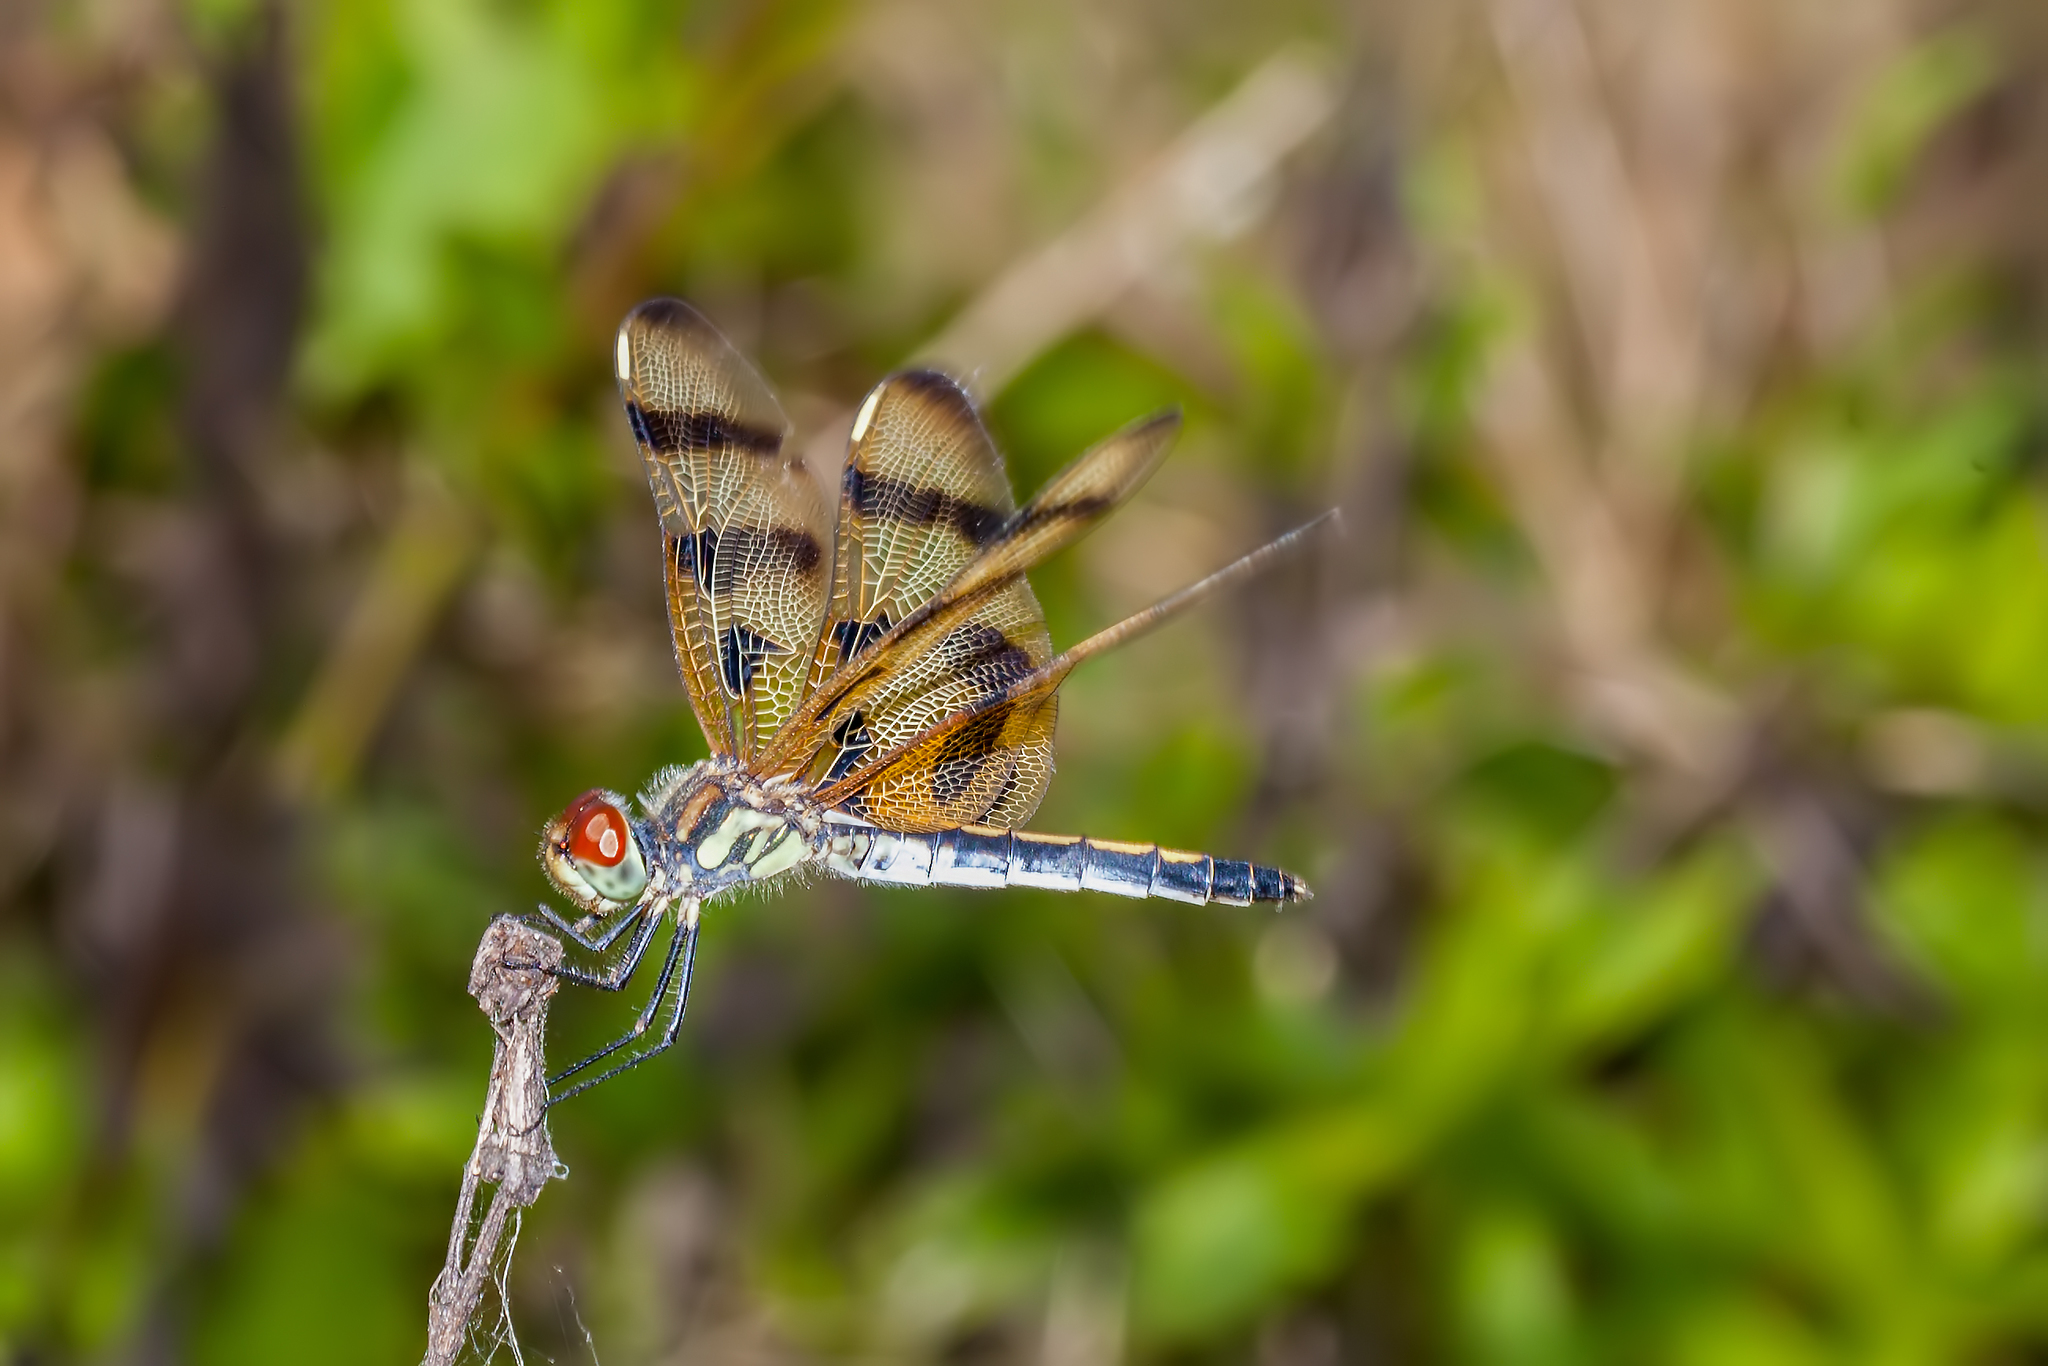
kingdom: Animalia
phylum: Arthropoda
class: Insecta
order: Odonata
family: Libellulidae
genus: Celithemis
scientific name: Celithemis eponina
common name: Halloween pennant
